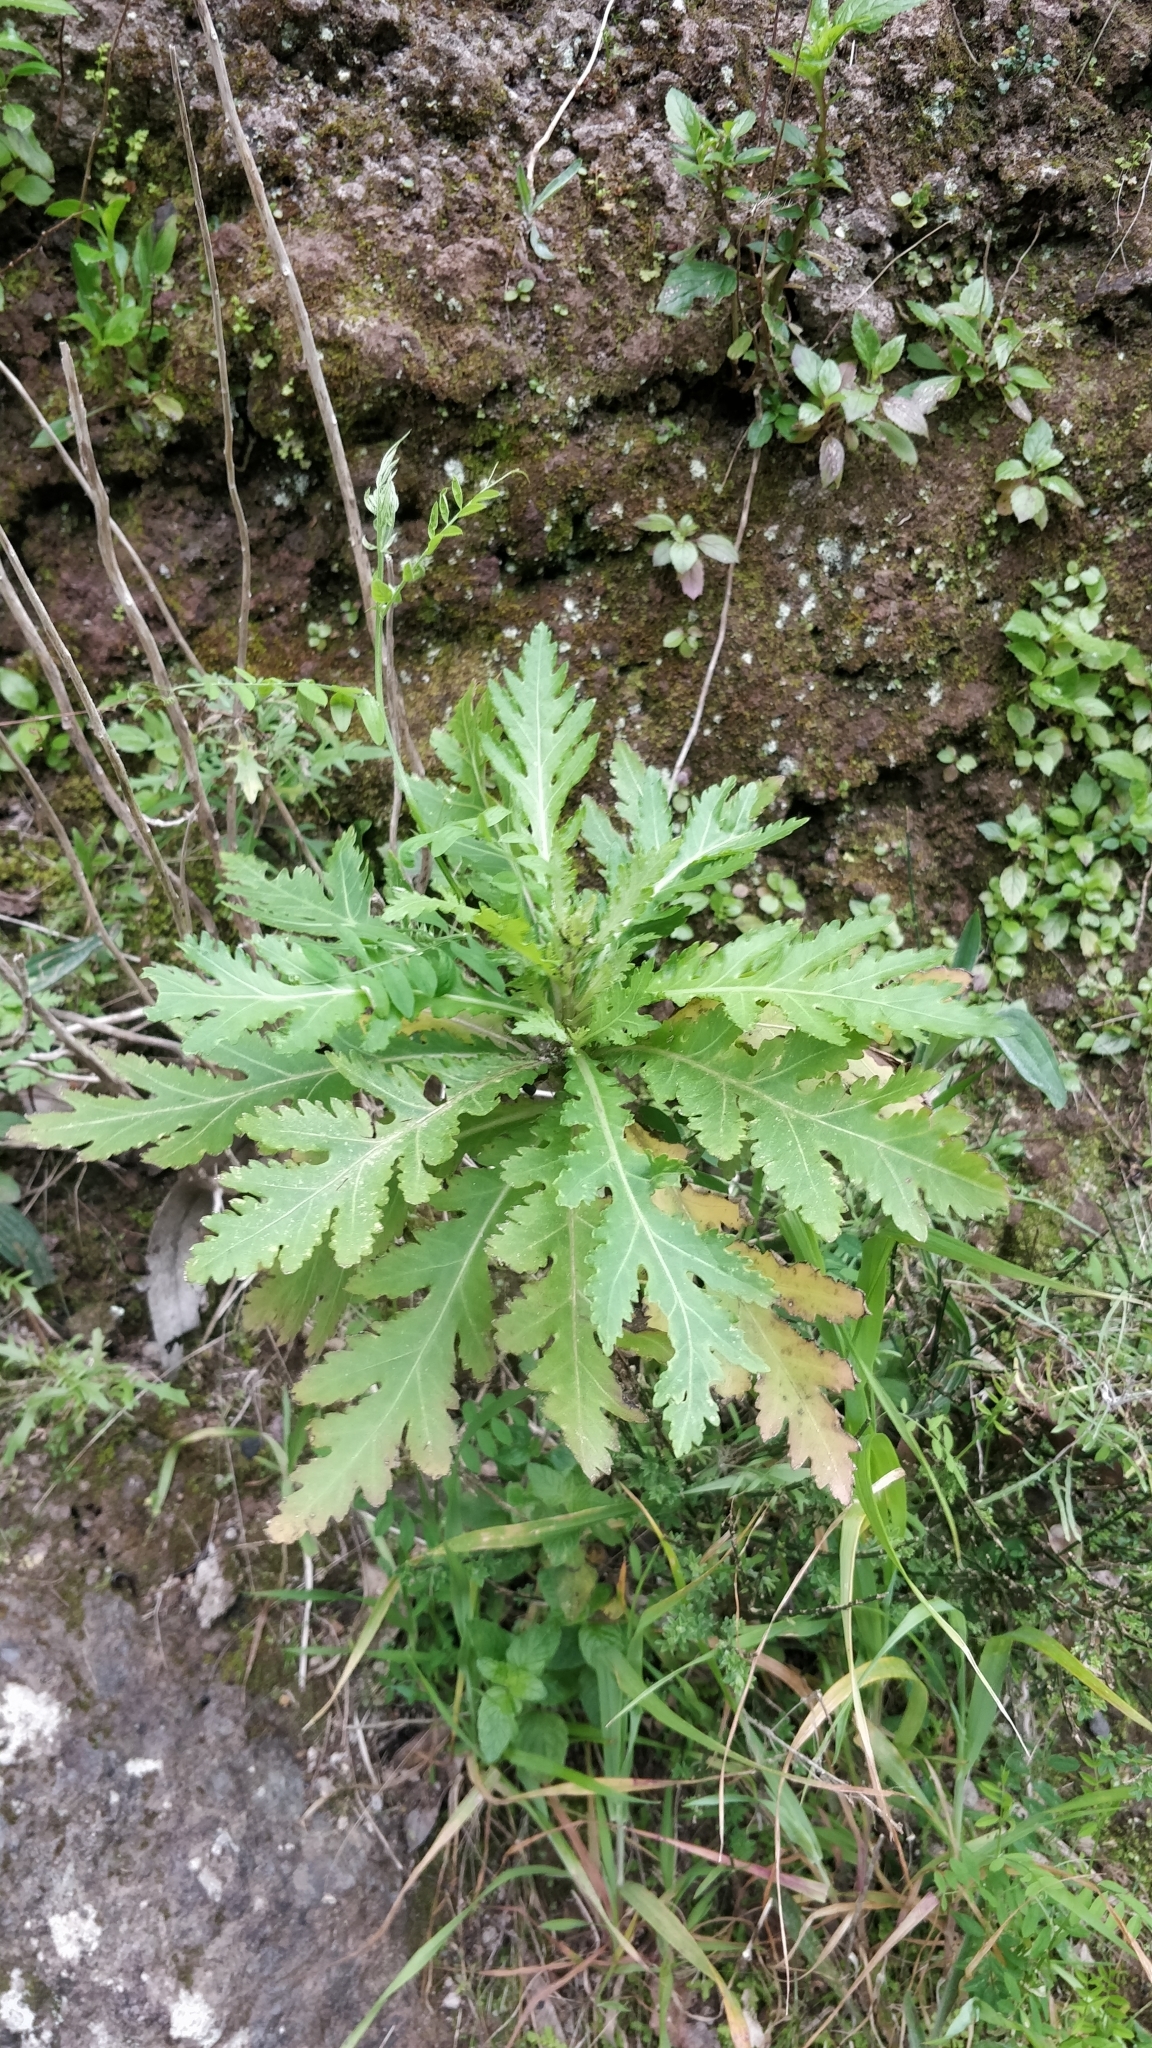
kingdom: Plantae
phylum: Tracheophyta
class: Magnoliopsida
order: Asterales
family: Asteraceae
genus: Argyranthemum
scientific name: Argyranthemum pinnatifidum
